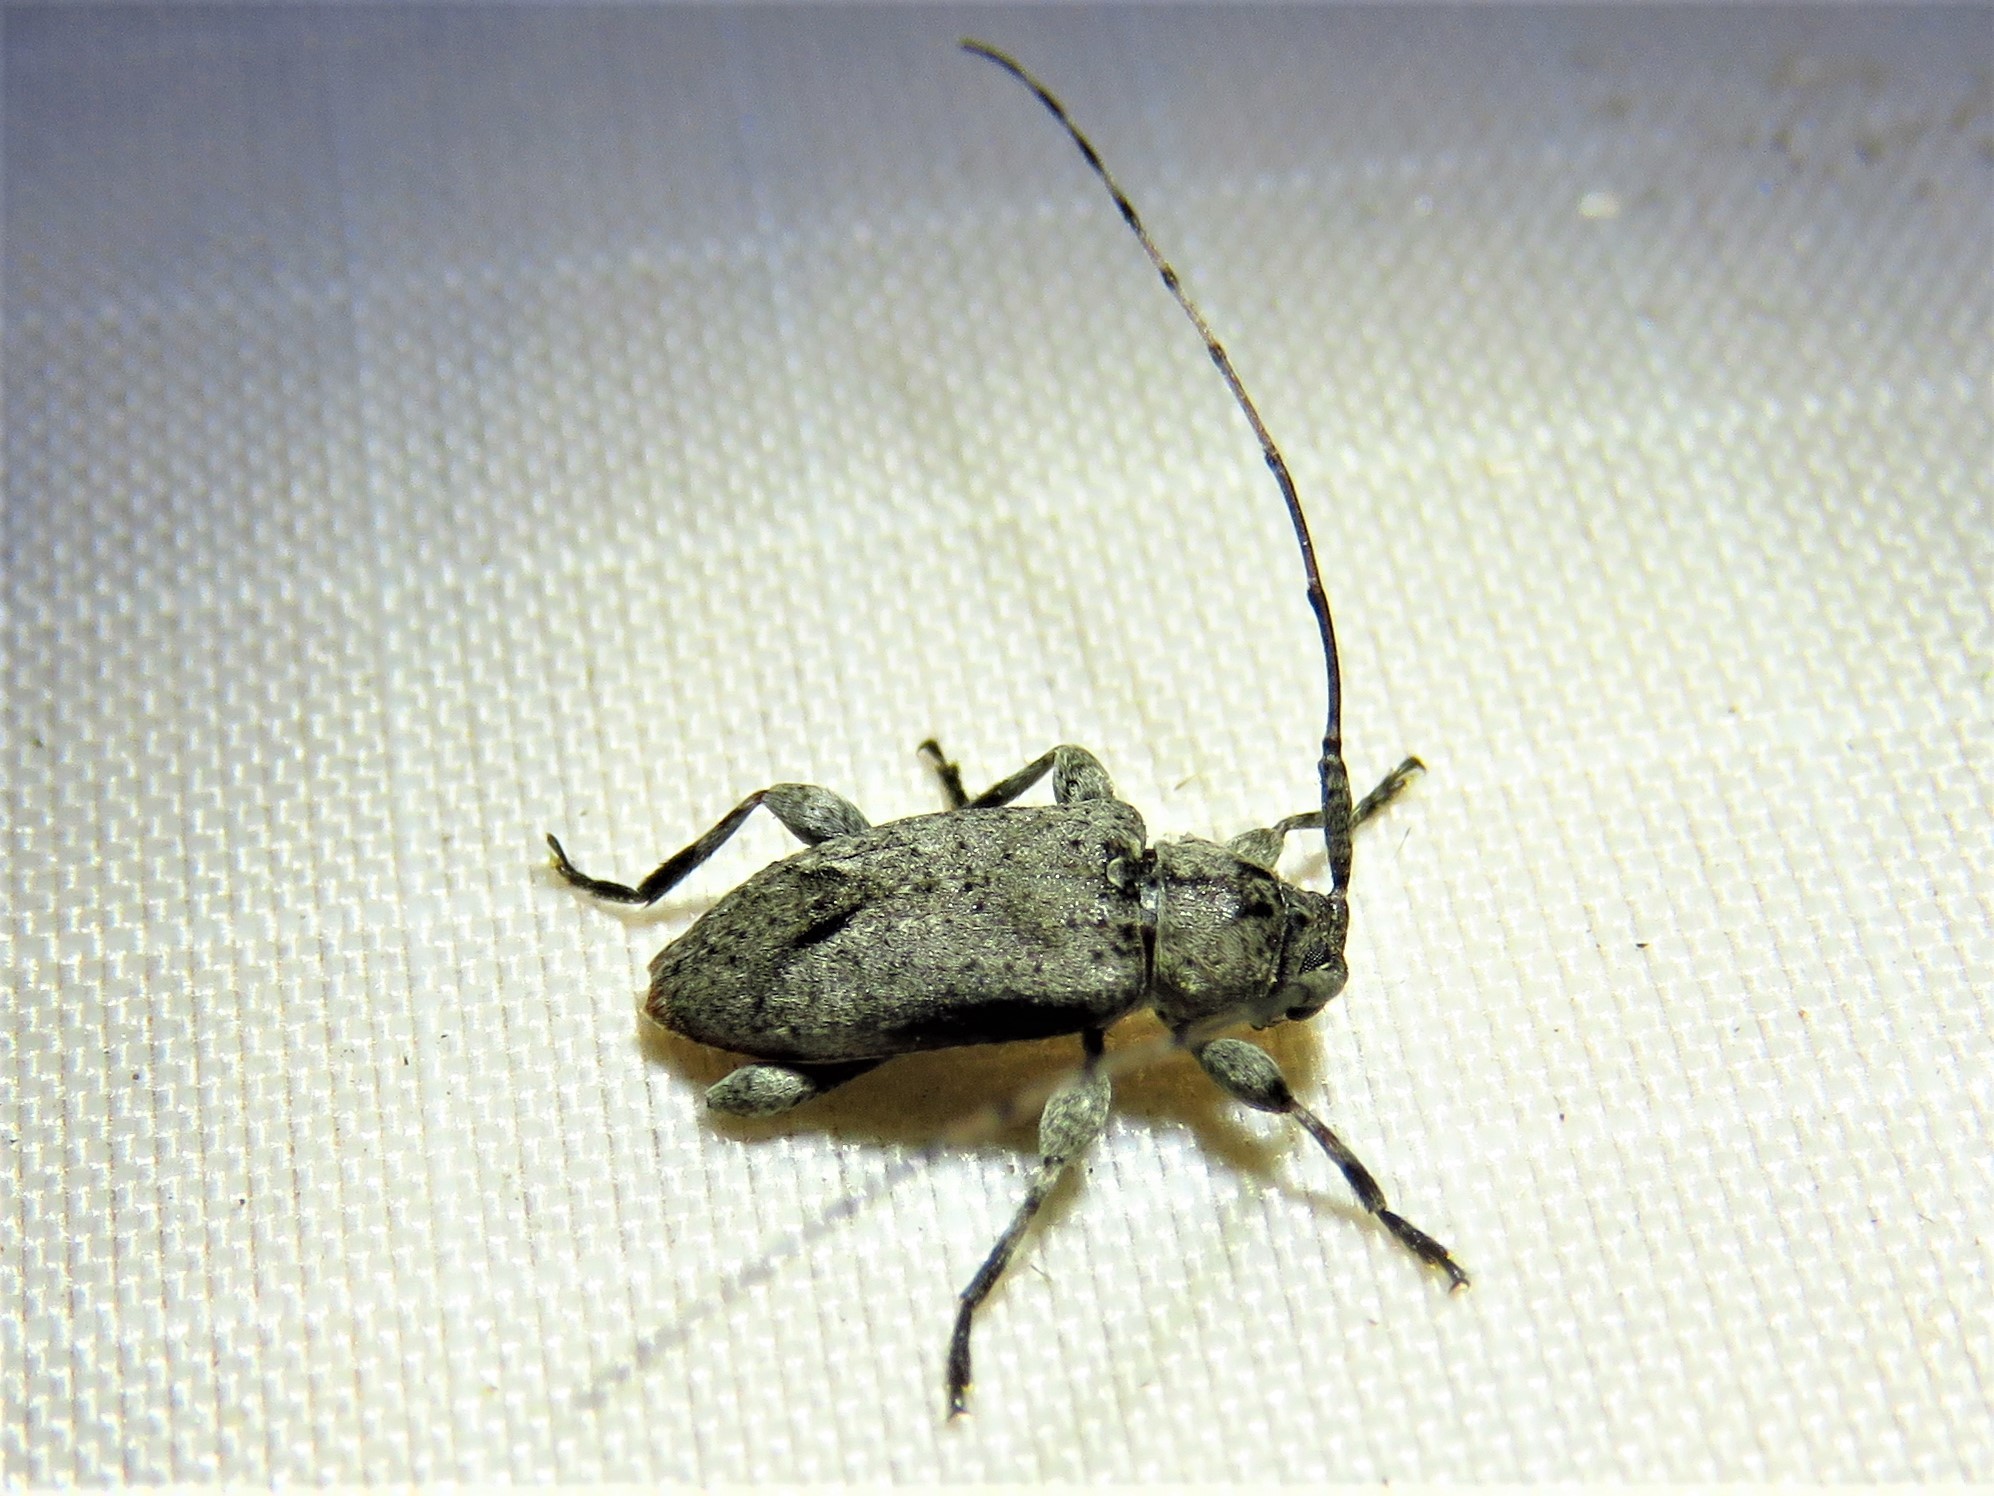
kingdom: Animalia
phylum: Arthropoda
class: Insecta
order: Coleoptera
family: Cerambycidae
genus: Sternidius
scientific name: Sternidius alpha
